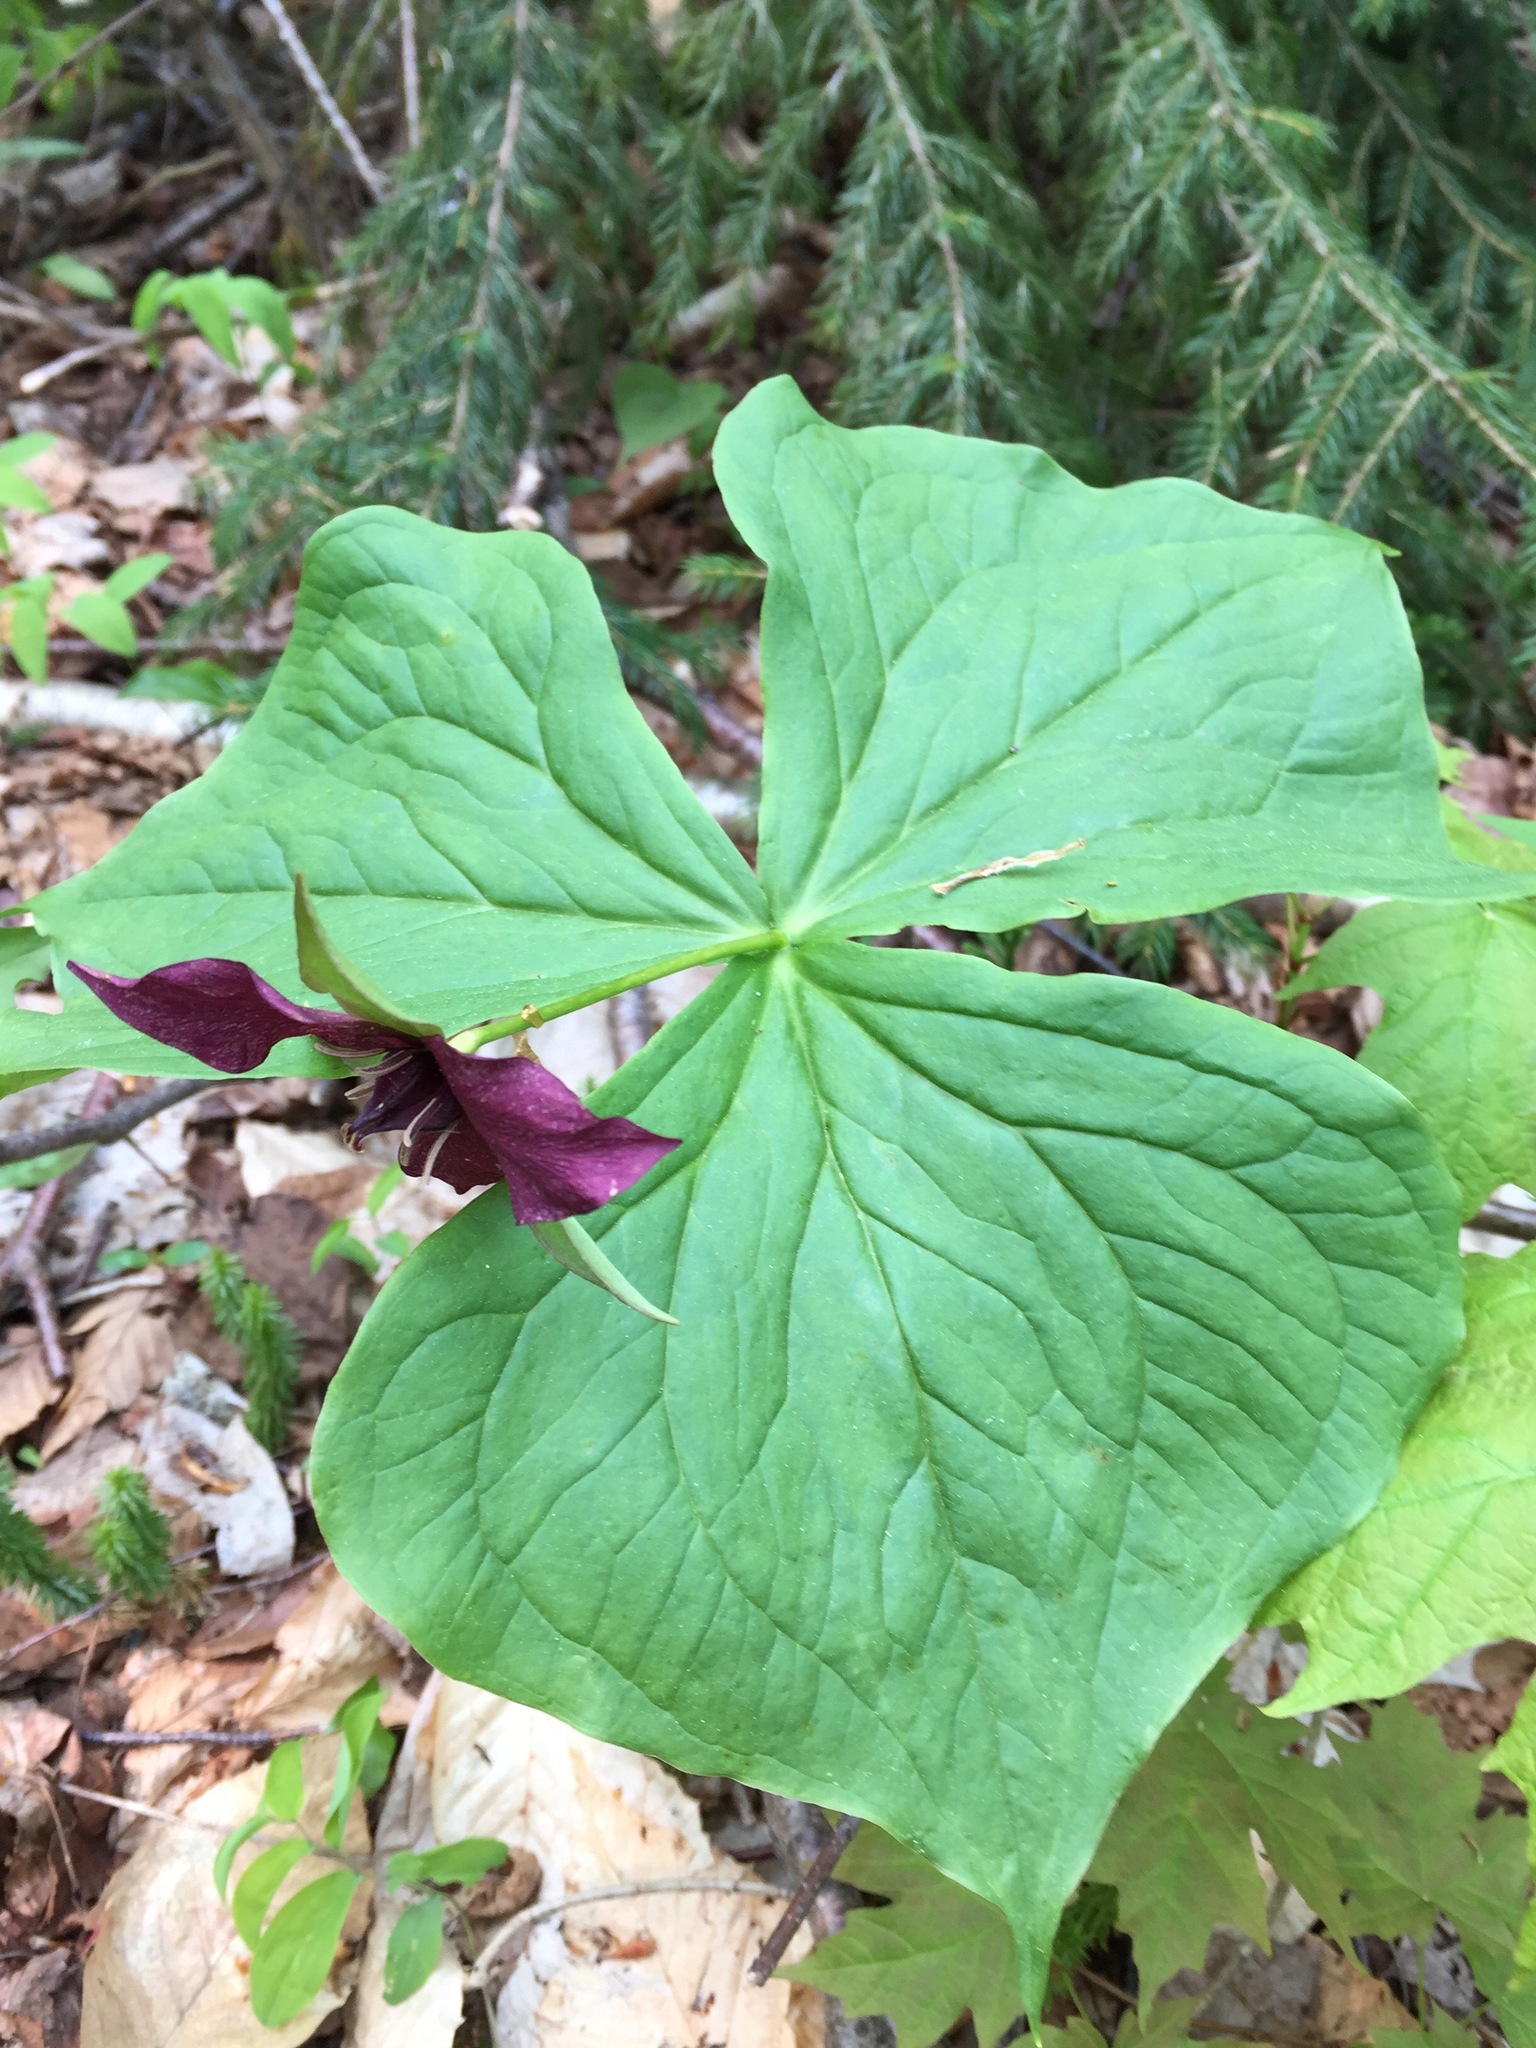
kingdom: Plantae
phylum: Tracheophyta
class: Liliopsida
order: Liliales
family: Melanthiaceae
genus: Trillium
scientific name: Trillium erectum
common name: Purple trillium
